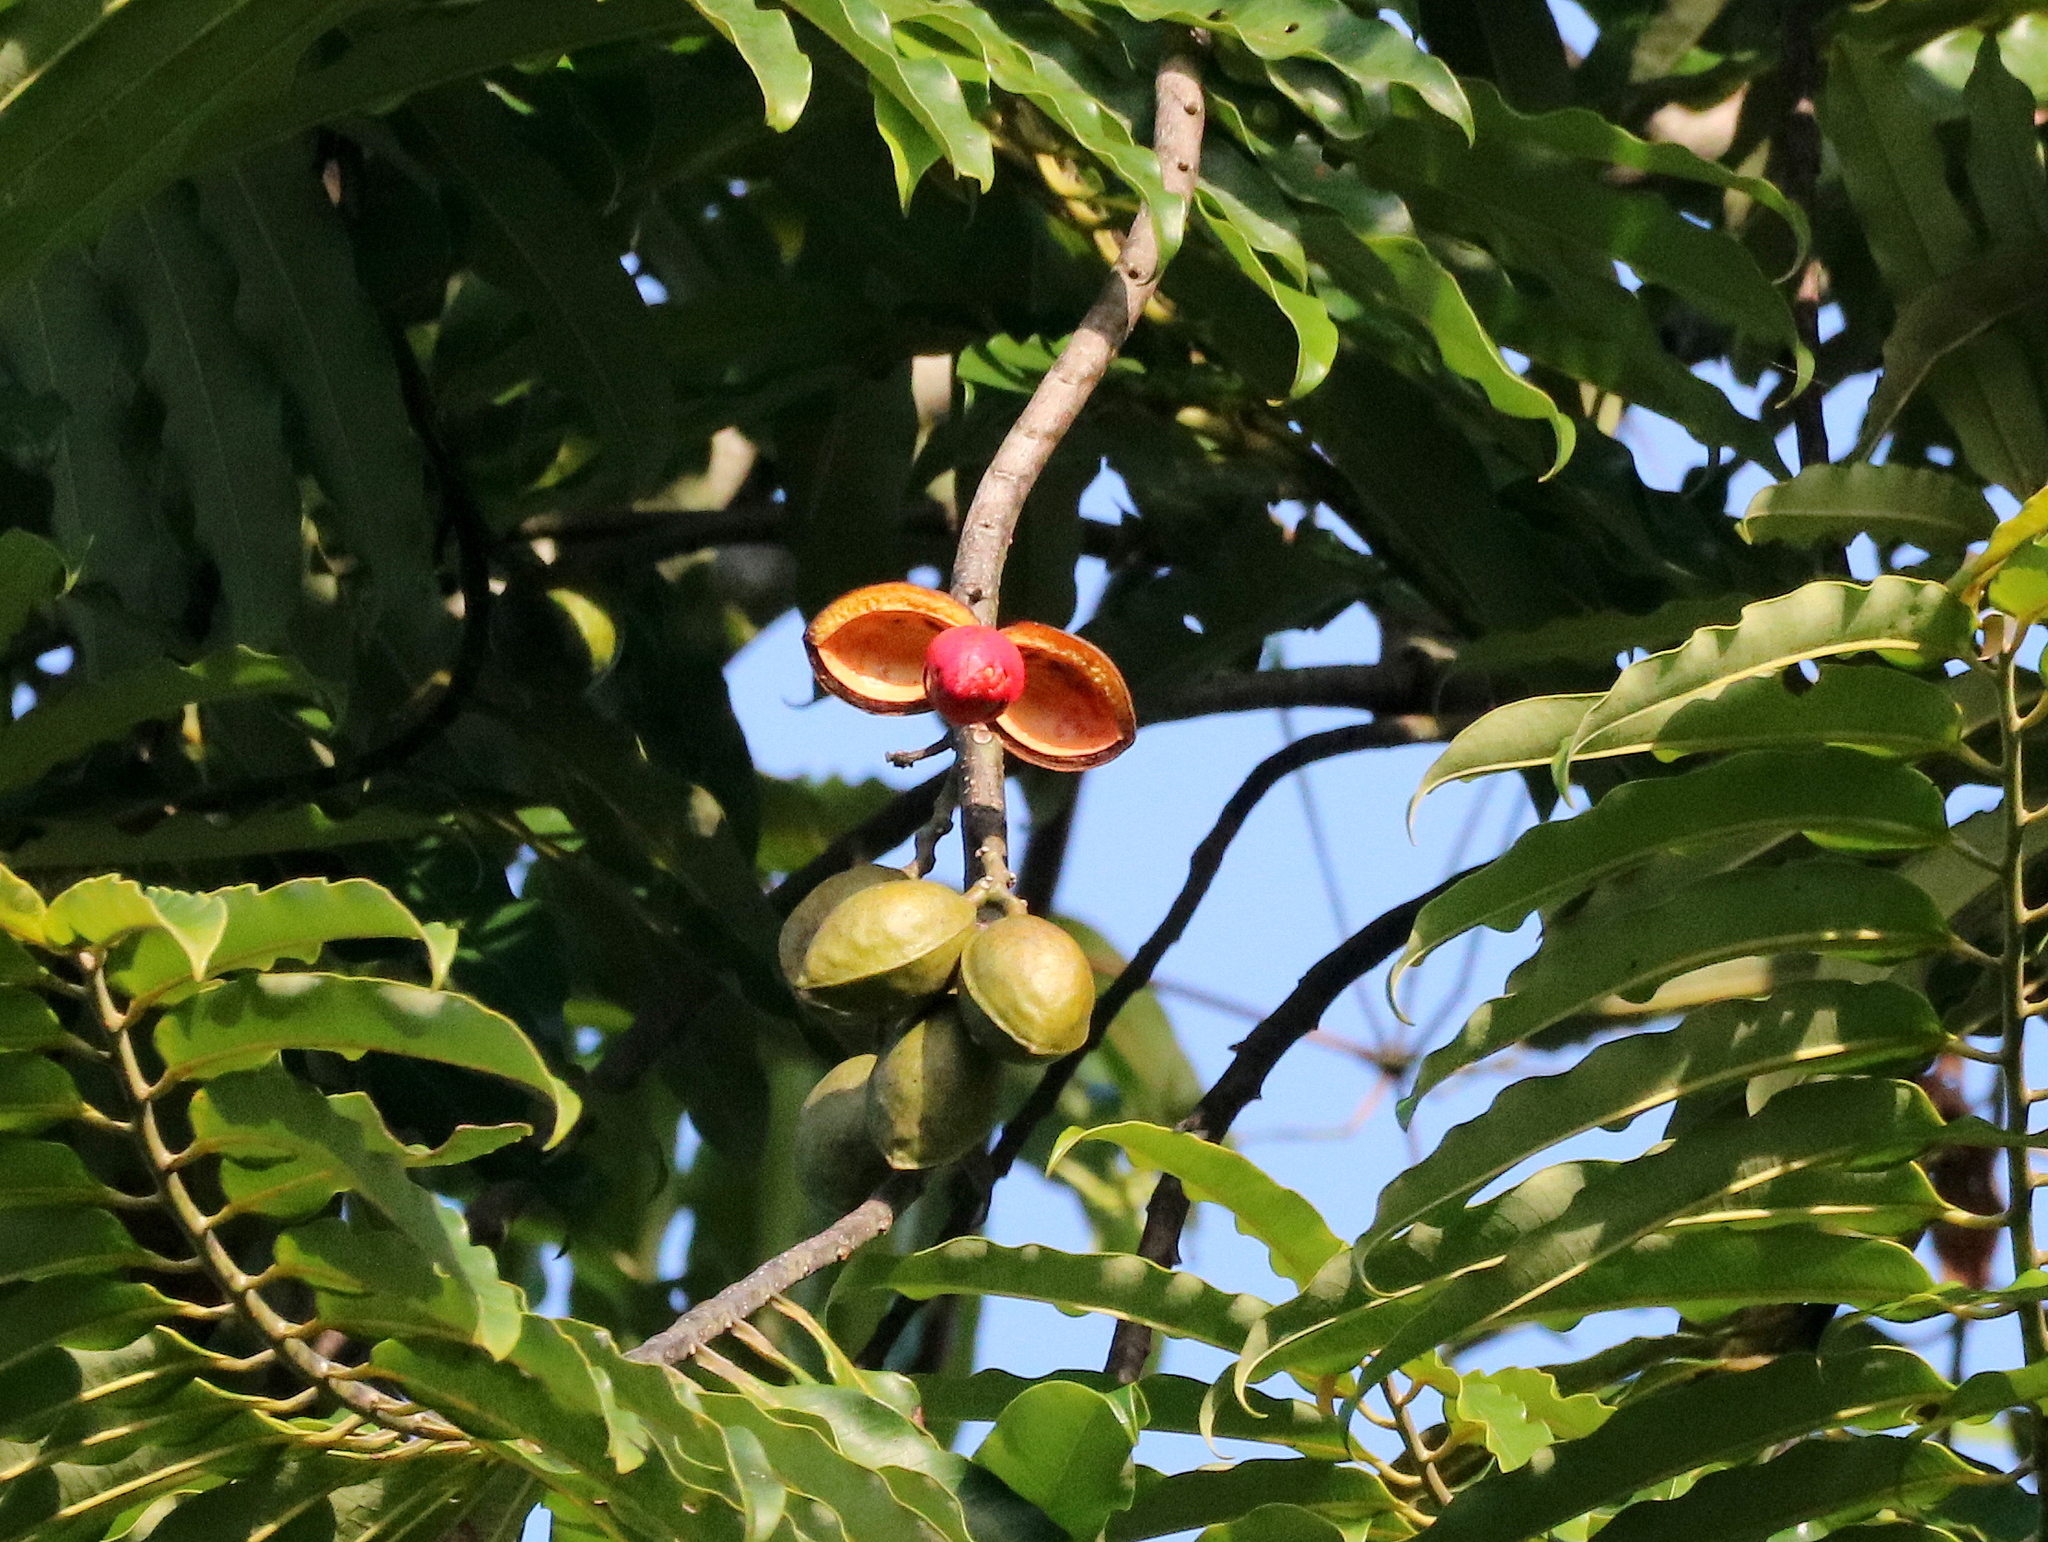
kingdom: Plantae
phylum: Tracheophyta
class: Magnoliopsida
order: Magnoliales
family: Myristicaceae
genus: Virola
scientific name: Virola bicuhyba
